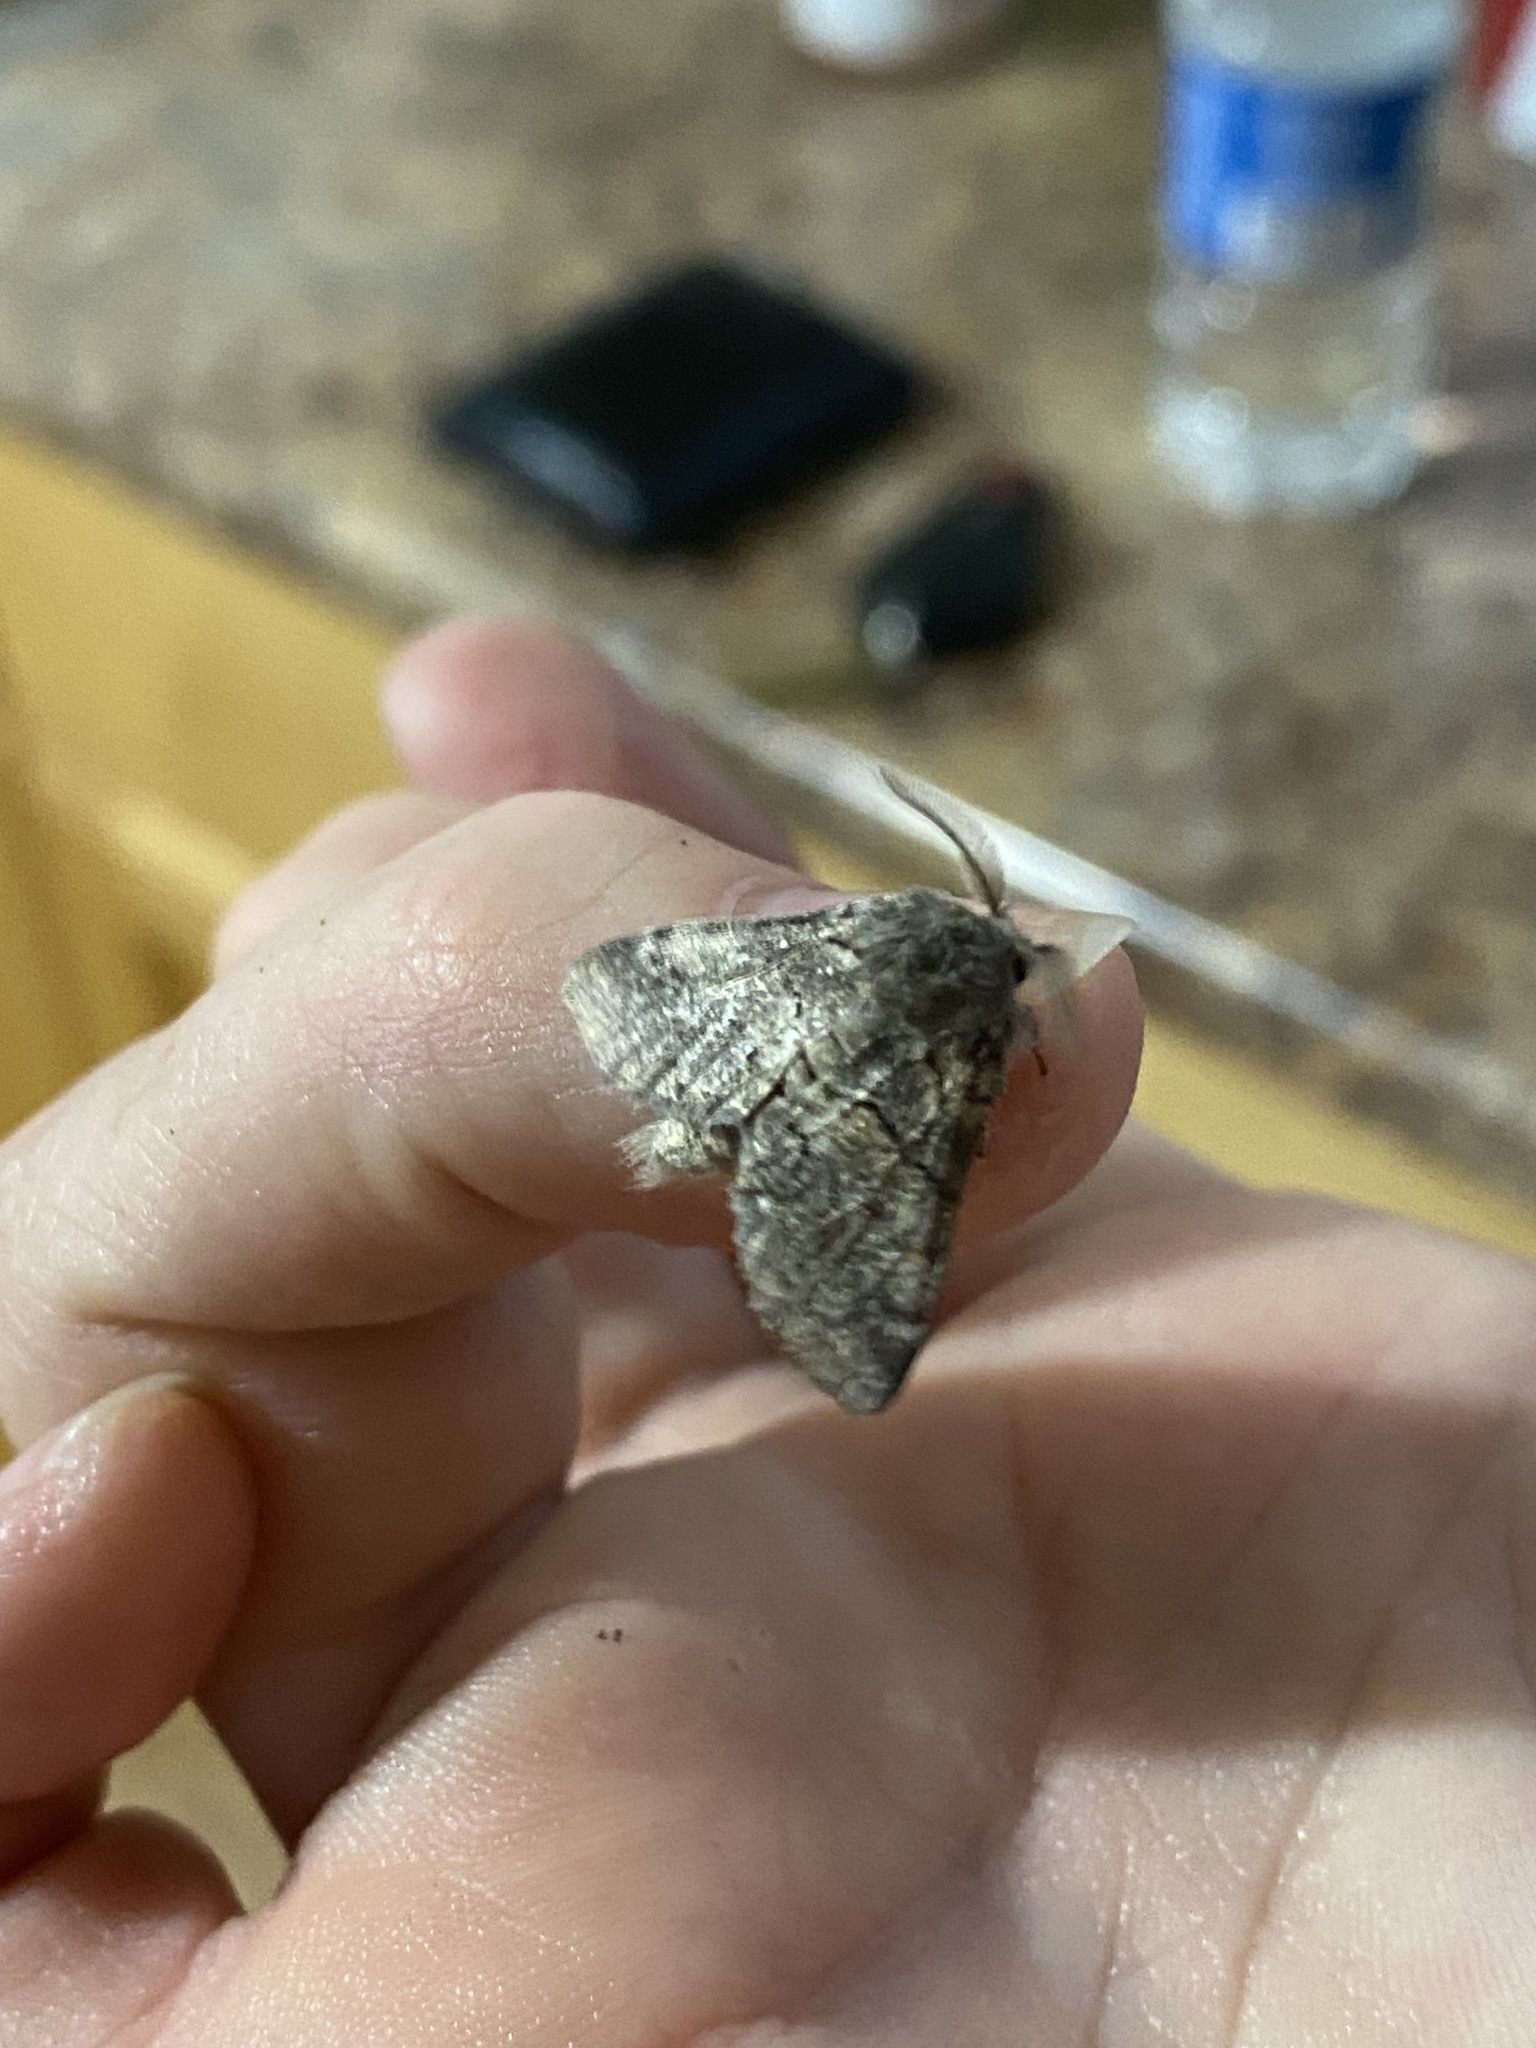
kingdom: Animalia
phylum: Arthropoda
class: Insecta
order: Lepidoptera
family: Notodontidae
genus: Gluphisia
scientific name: Gluphisia septentrionis
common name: Common gluphisia
